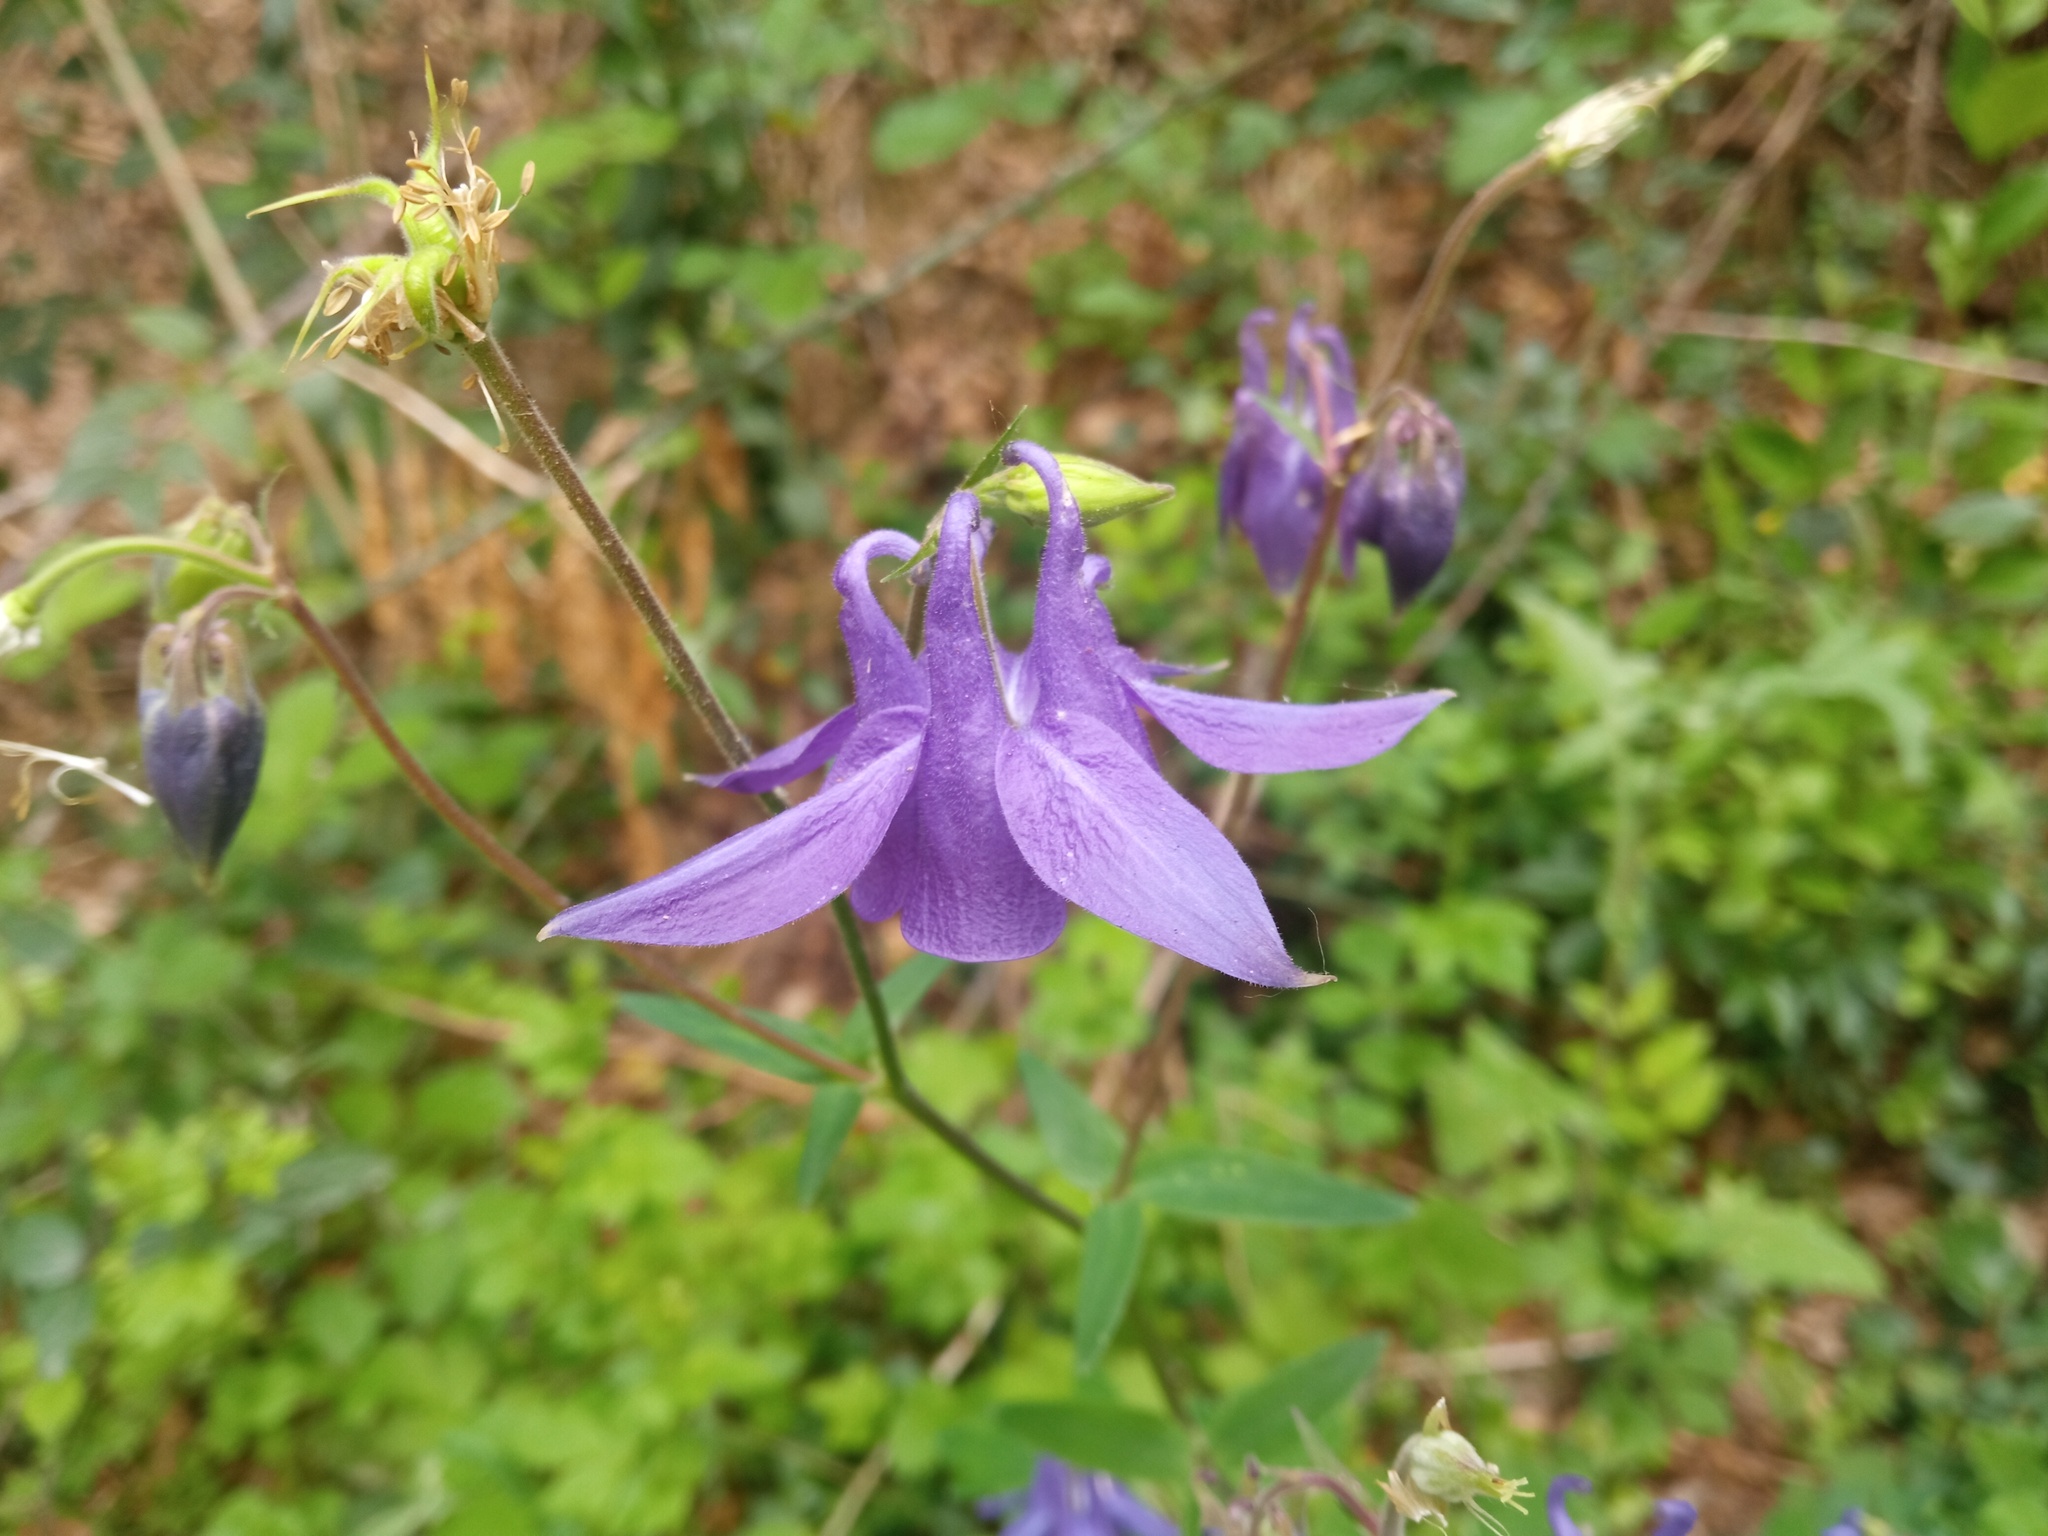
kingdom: Plantae
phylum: Tracheophyta
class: Magnoliopsida
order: Ranunculales
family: Ranunculaceae
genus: Aquilegia
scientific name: Aquilegia vulgaris
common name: Columbine
